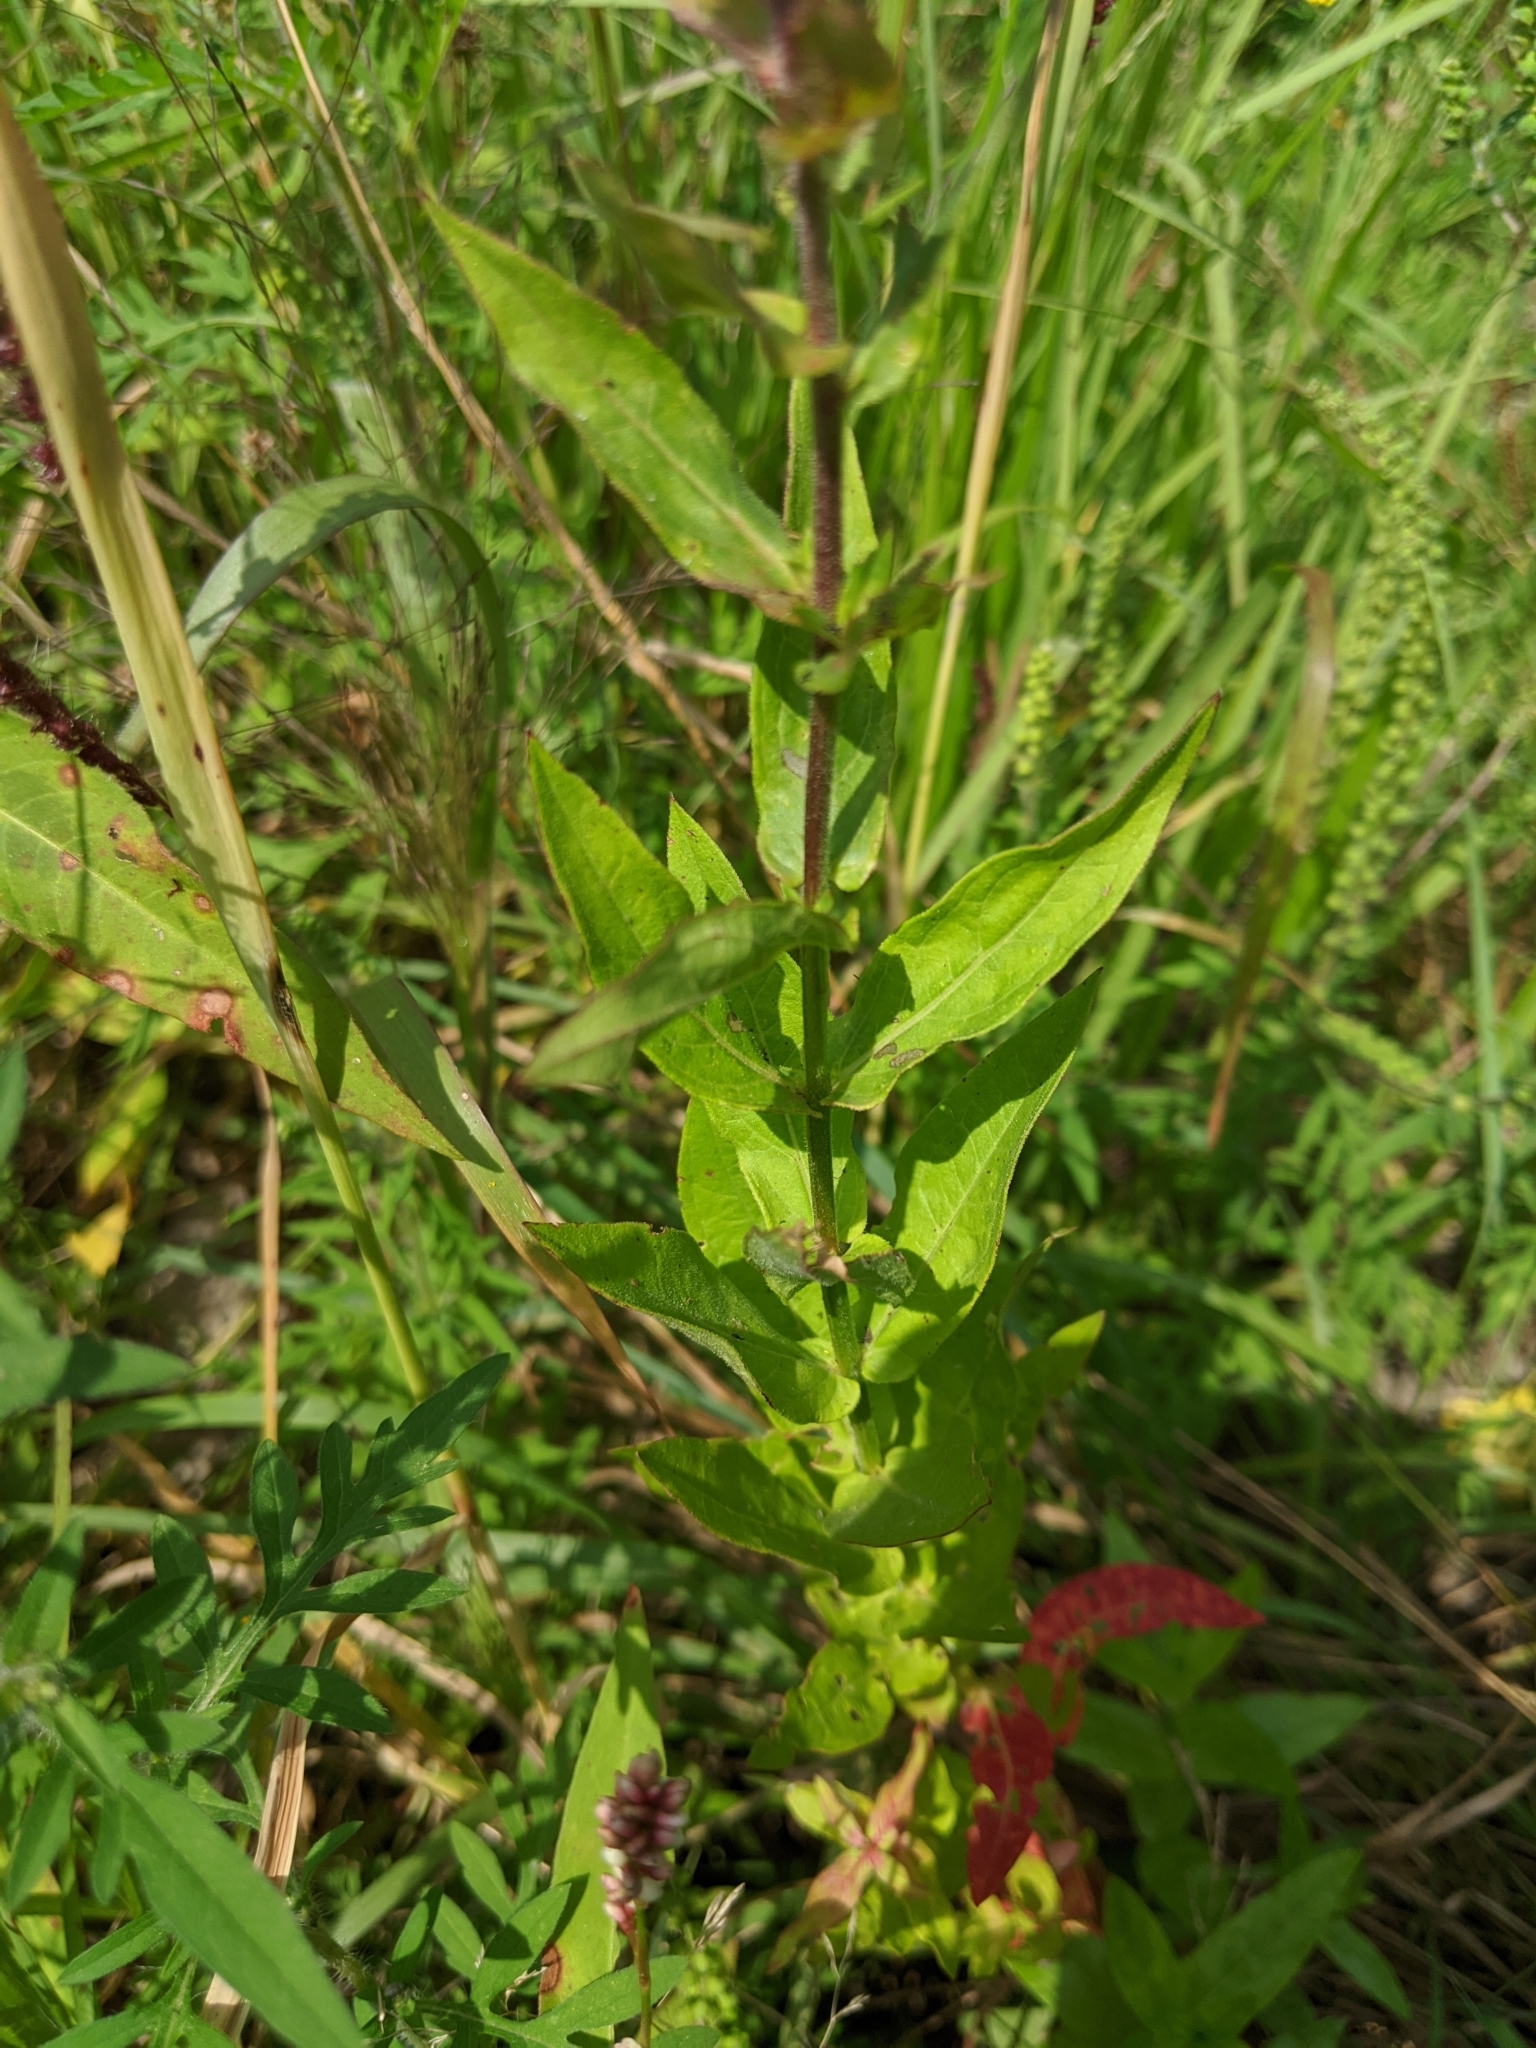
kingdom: Plantae
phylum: Tracheophyta
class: Magnoliopsida
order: Myrtales
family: Lythraceae
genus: Lythrum
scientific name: Lythrum salicaria
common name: Purple loosestrife
